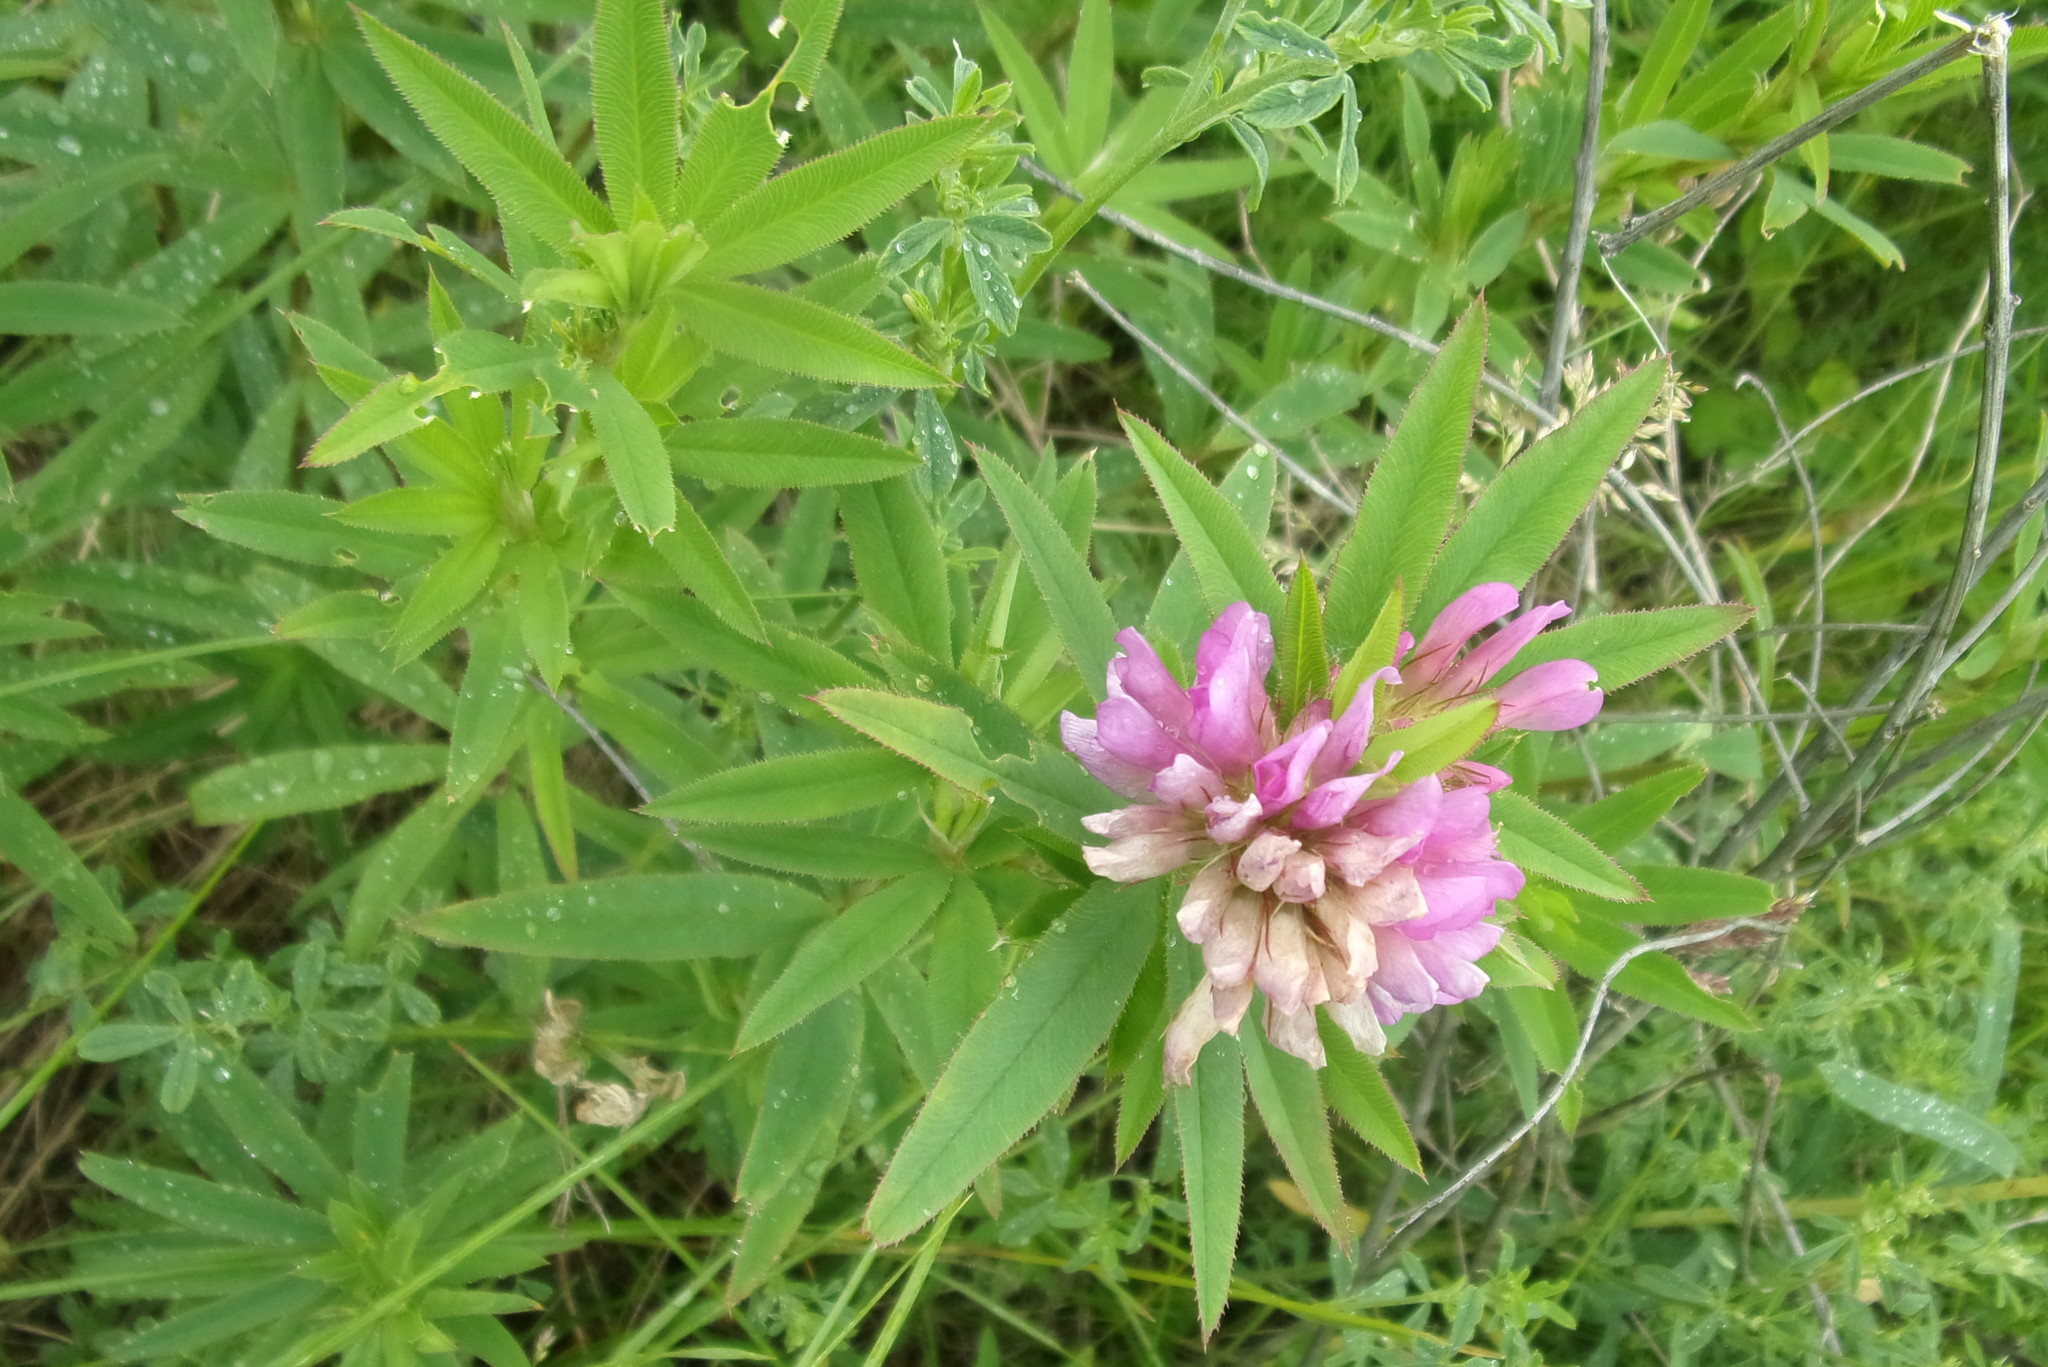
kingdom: Plantae
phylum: Tracheophyta
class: Magnoliopsida
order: Fabales
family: Fabaceae
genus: Trifolium
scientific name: Trifolium lupinaster
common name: Lupine clover
